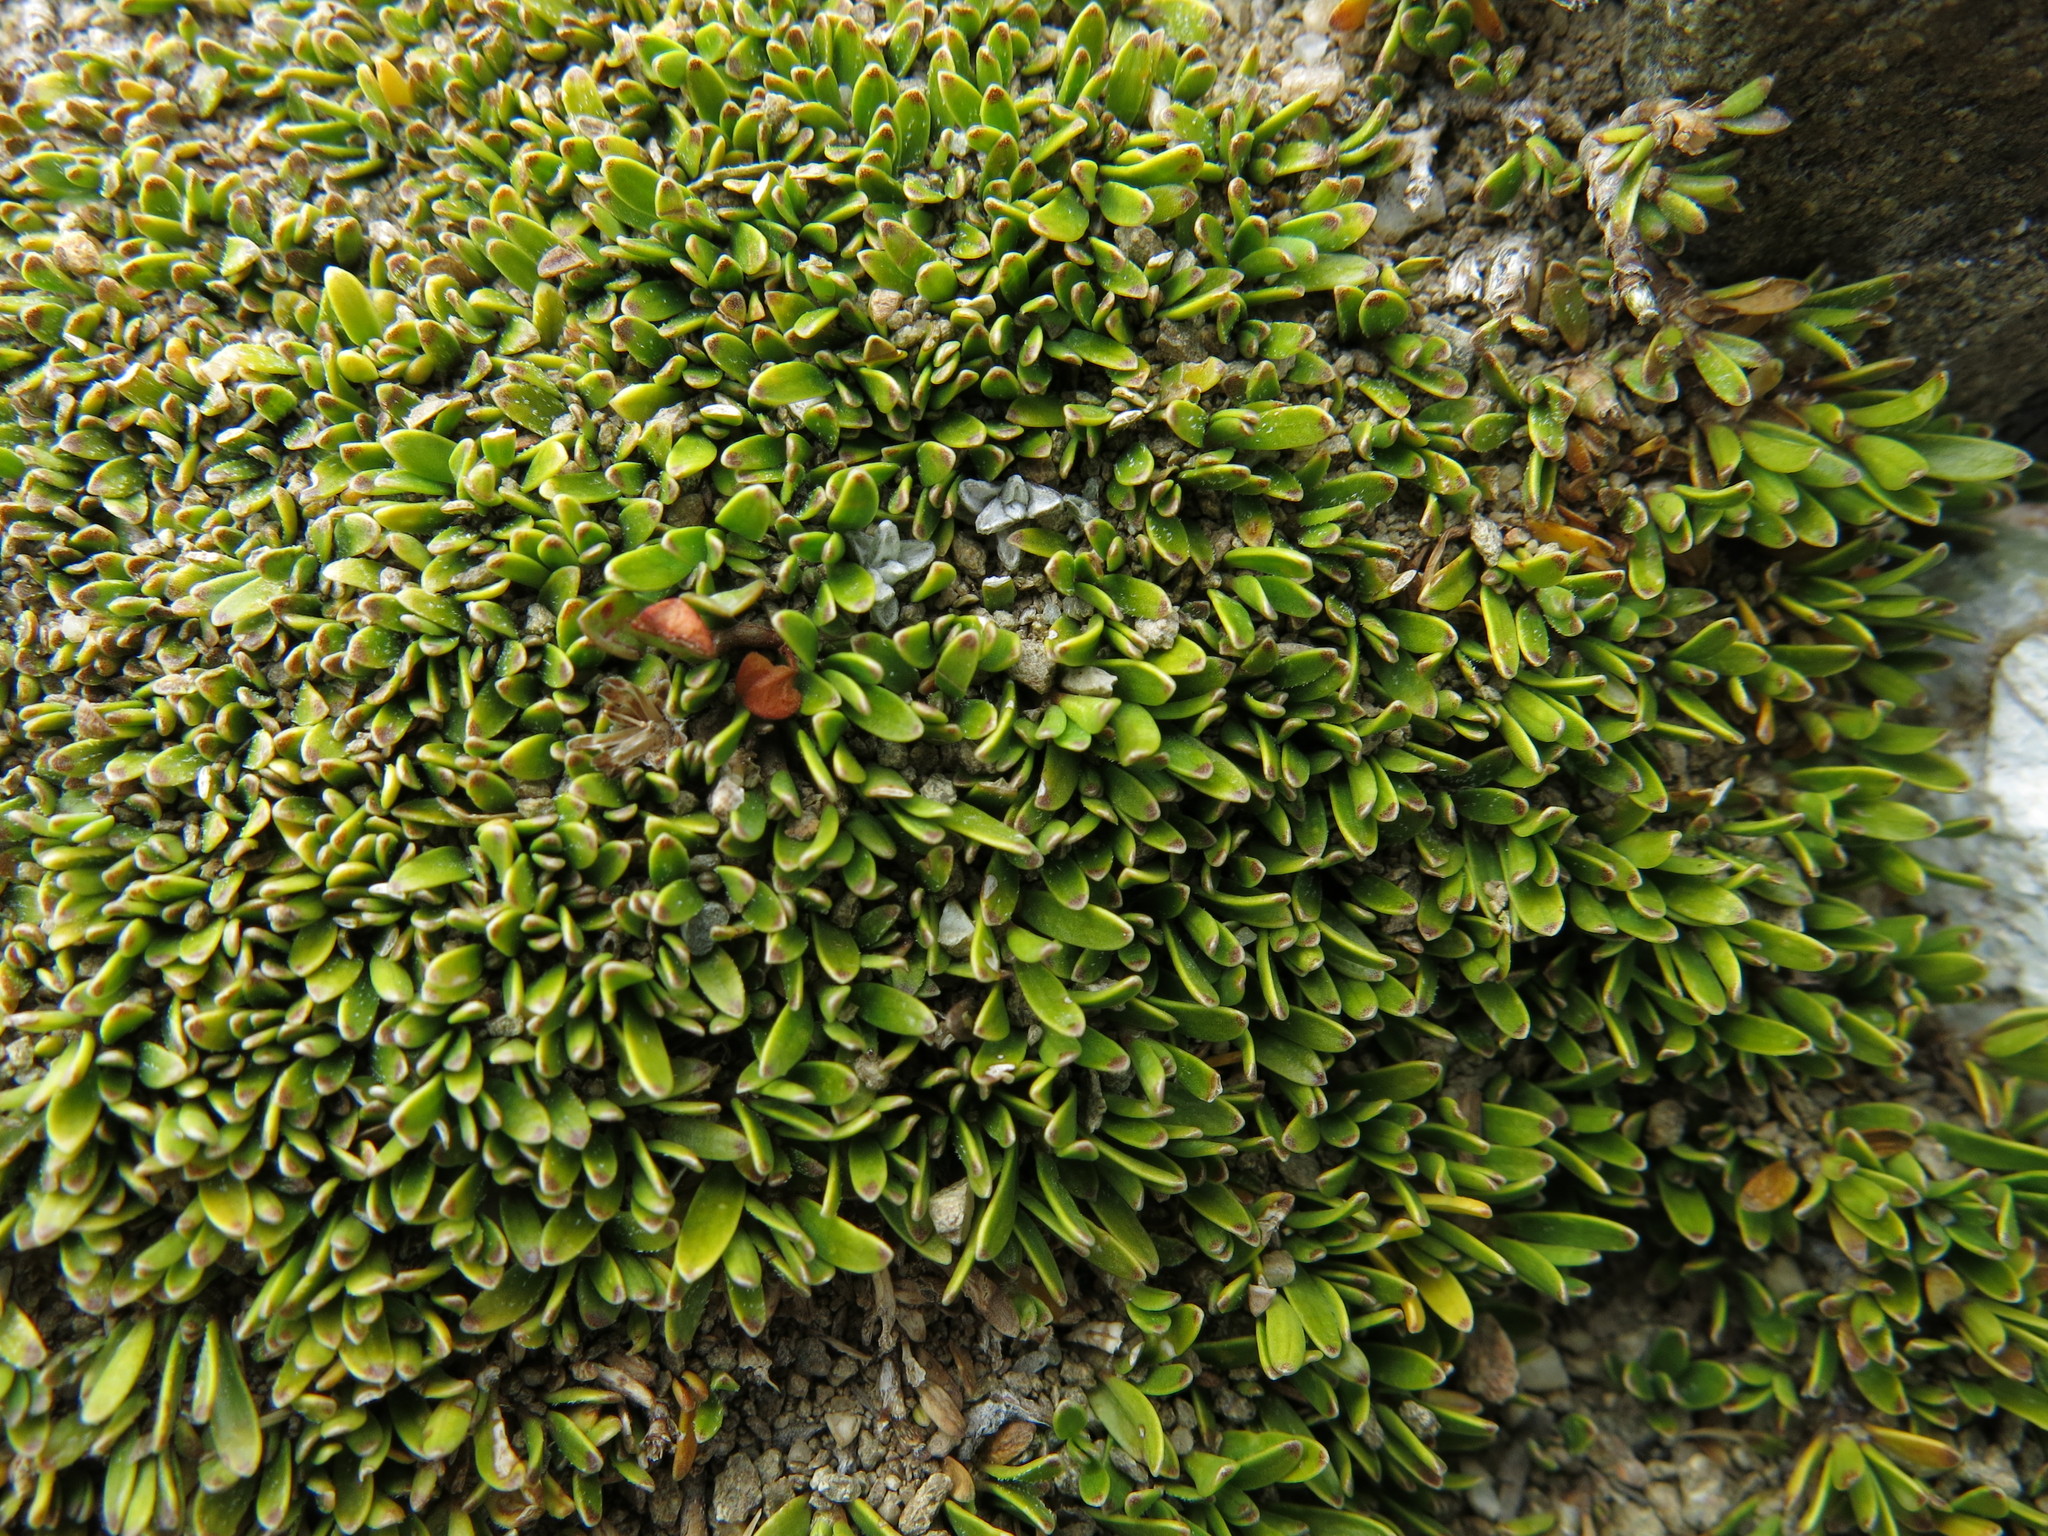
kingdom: Plantae
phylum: Tracheophyta
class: Magnoliopsida
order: Gentianales
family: Rubiaceae
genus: Coprosma
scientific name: Coprosma petriei
